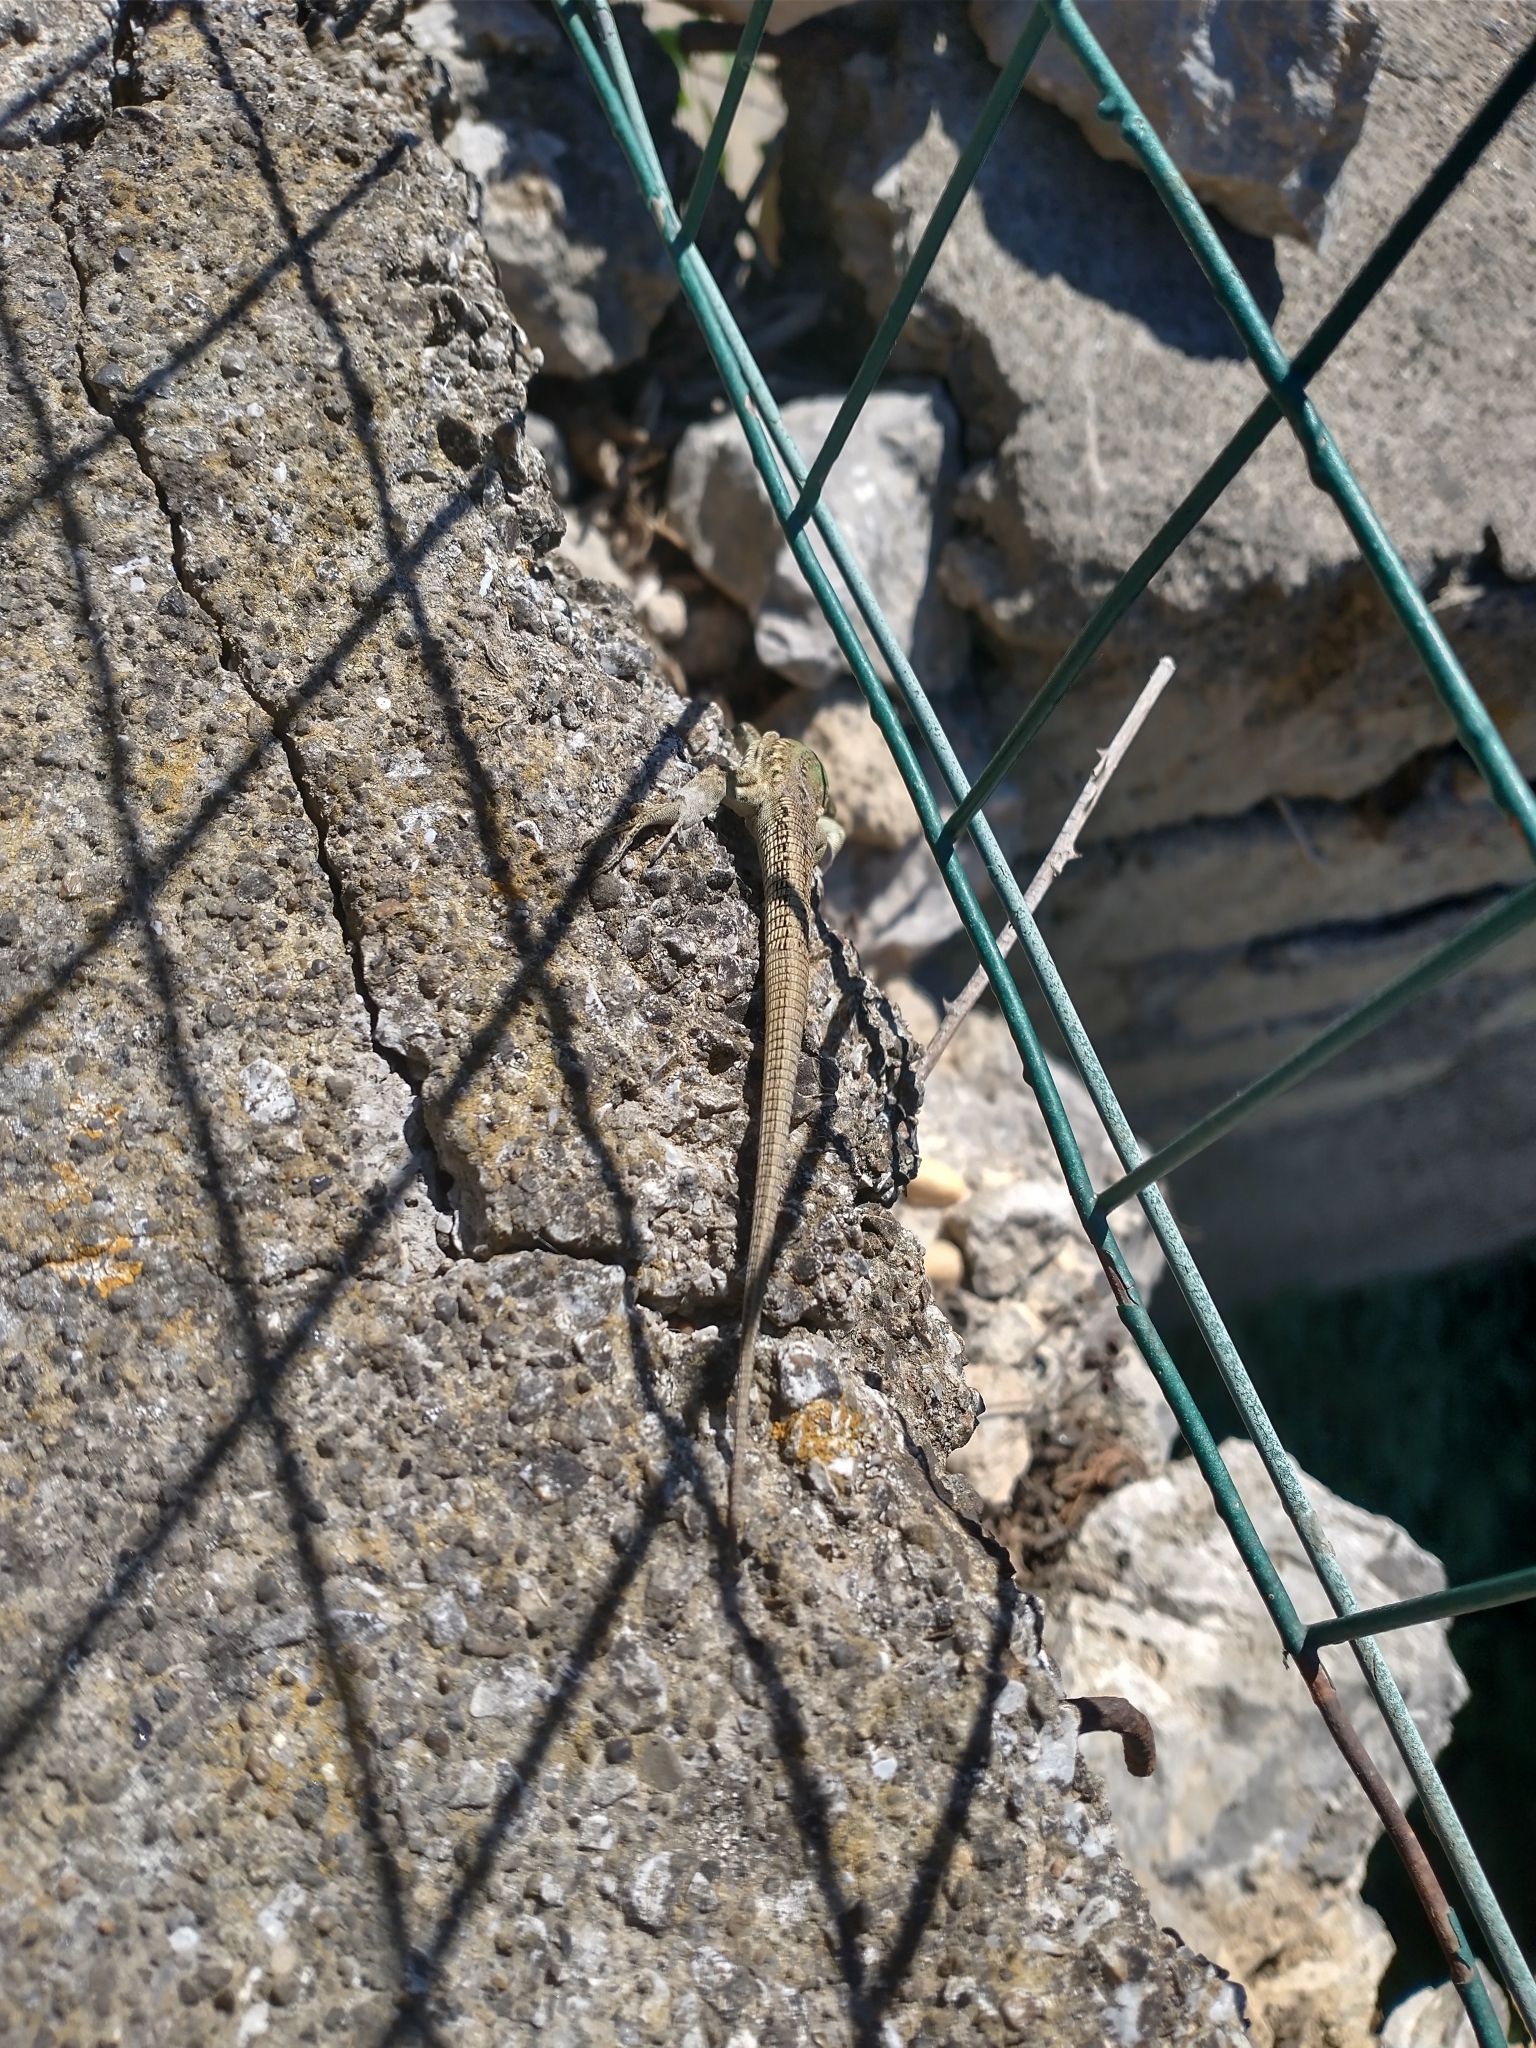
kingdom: Animalia
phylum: Chordata
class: Squamata
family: Lacertidae
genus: Podarcis
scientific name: Podarcis siculus
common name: Italian wall lizard
